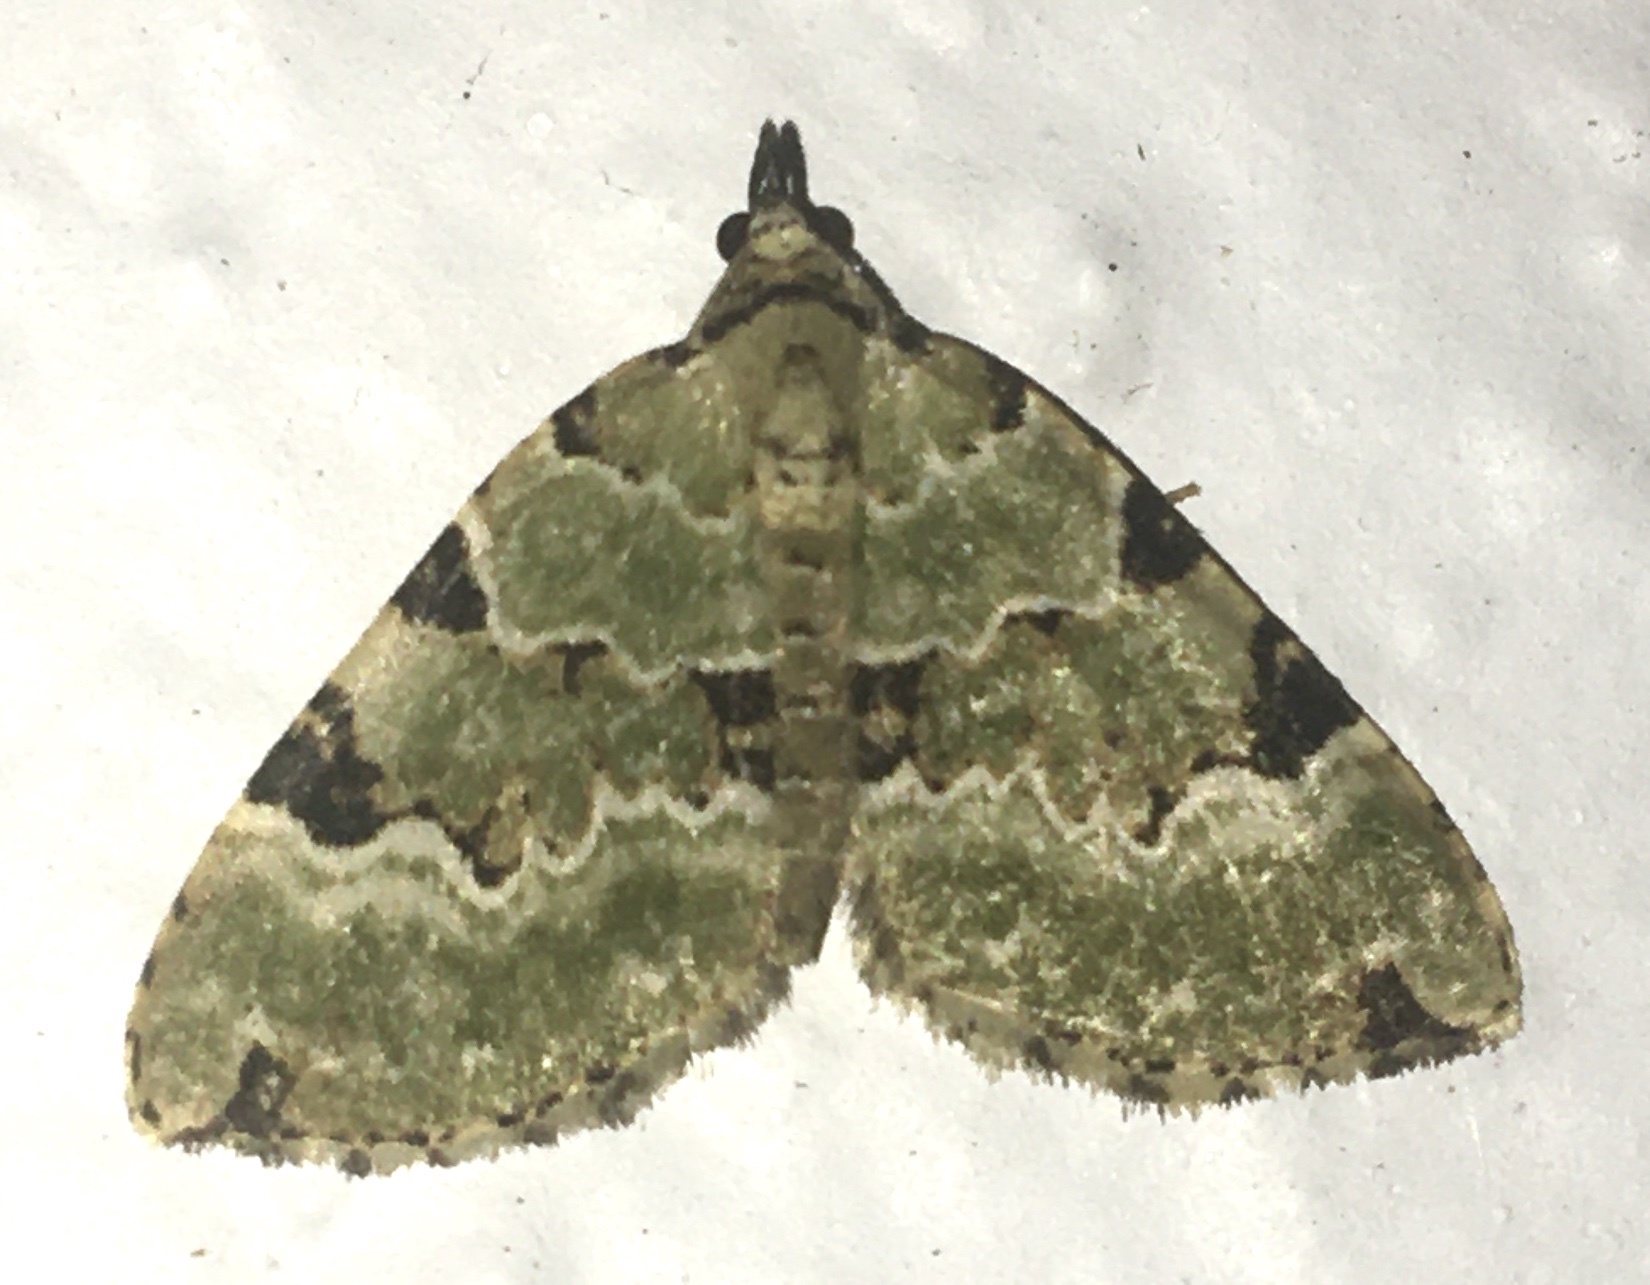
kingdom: Animalia
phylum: Arthropoda
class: Insecta
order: Lepidoptera
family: Geometridae
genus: Colostygia
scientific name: Colostygia pectinataria
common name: Green carpet
